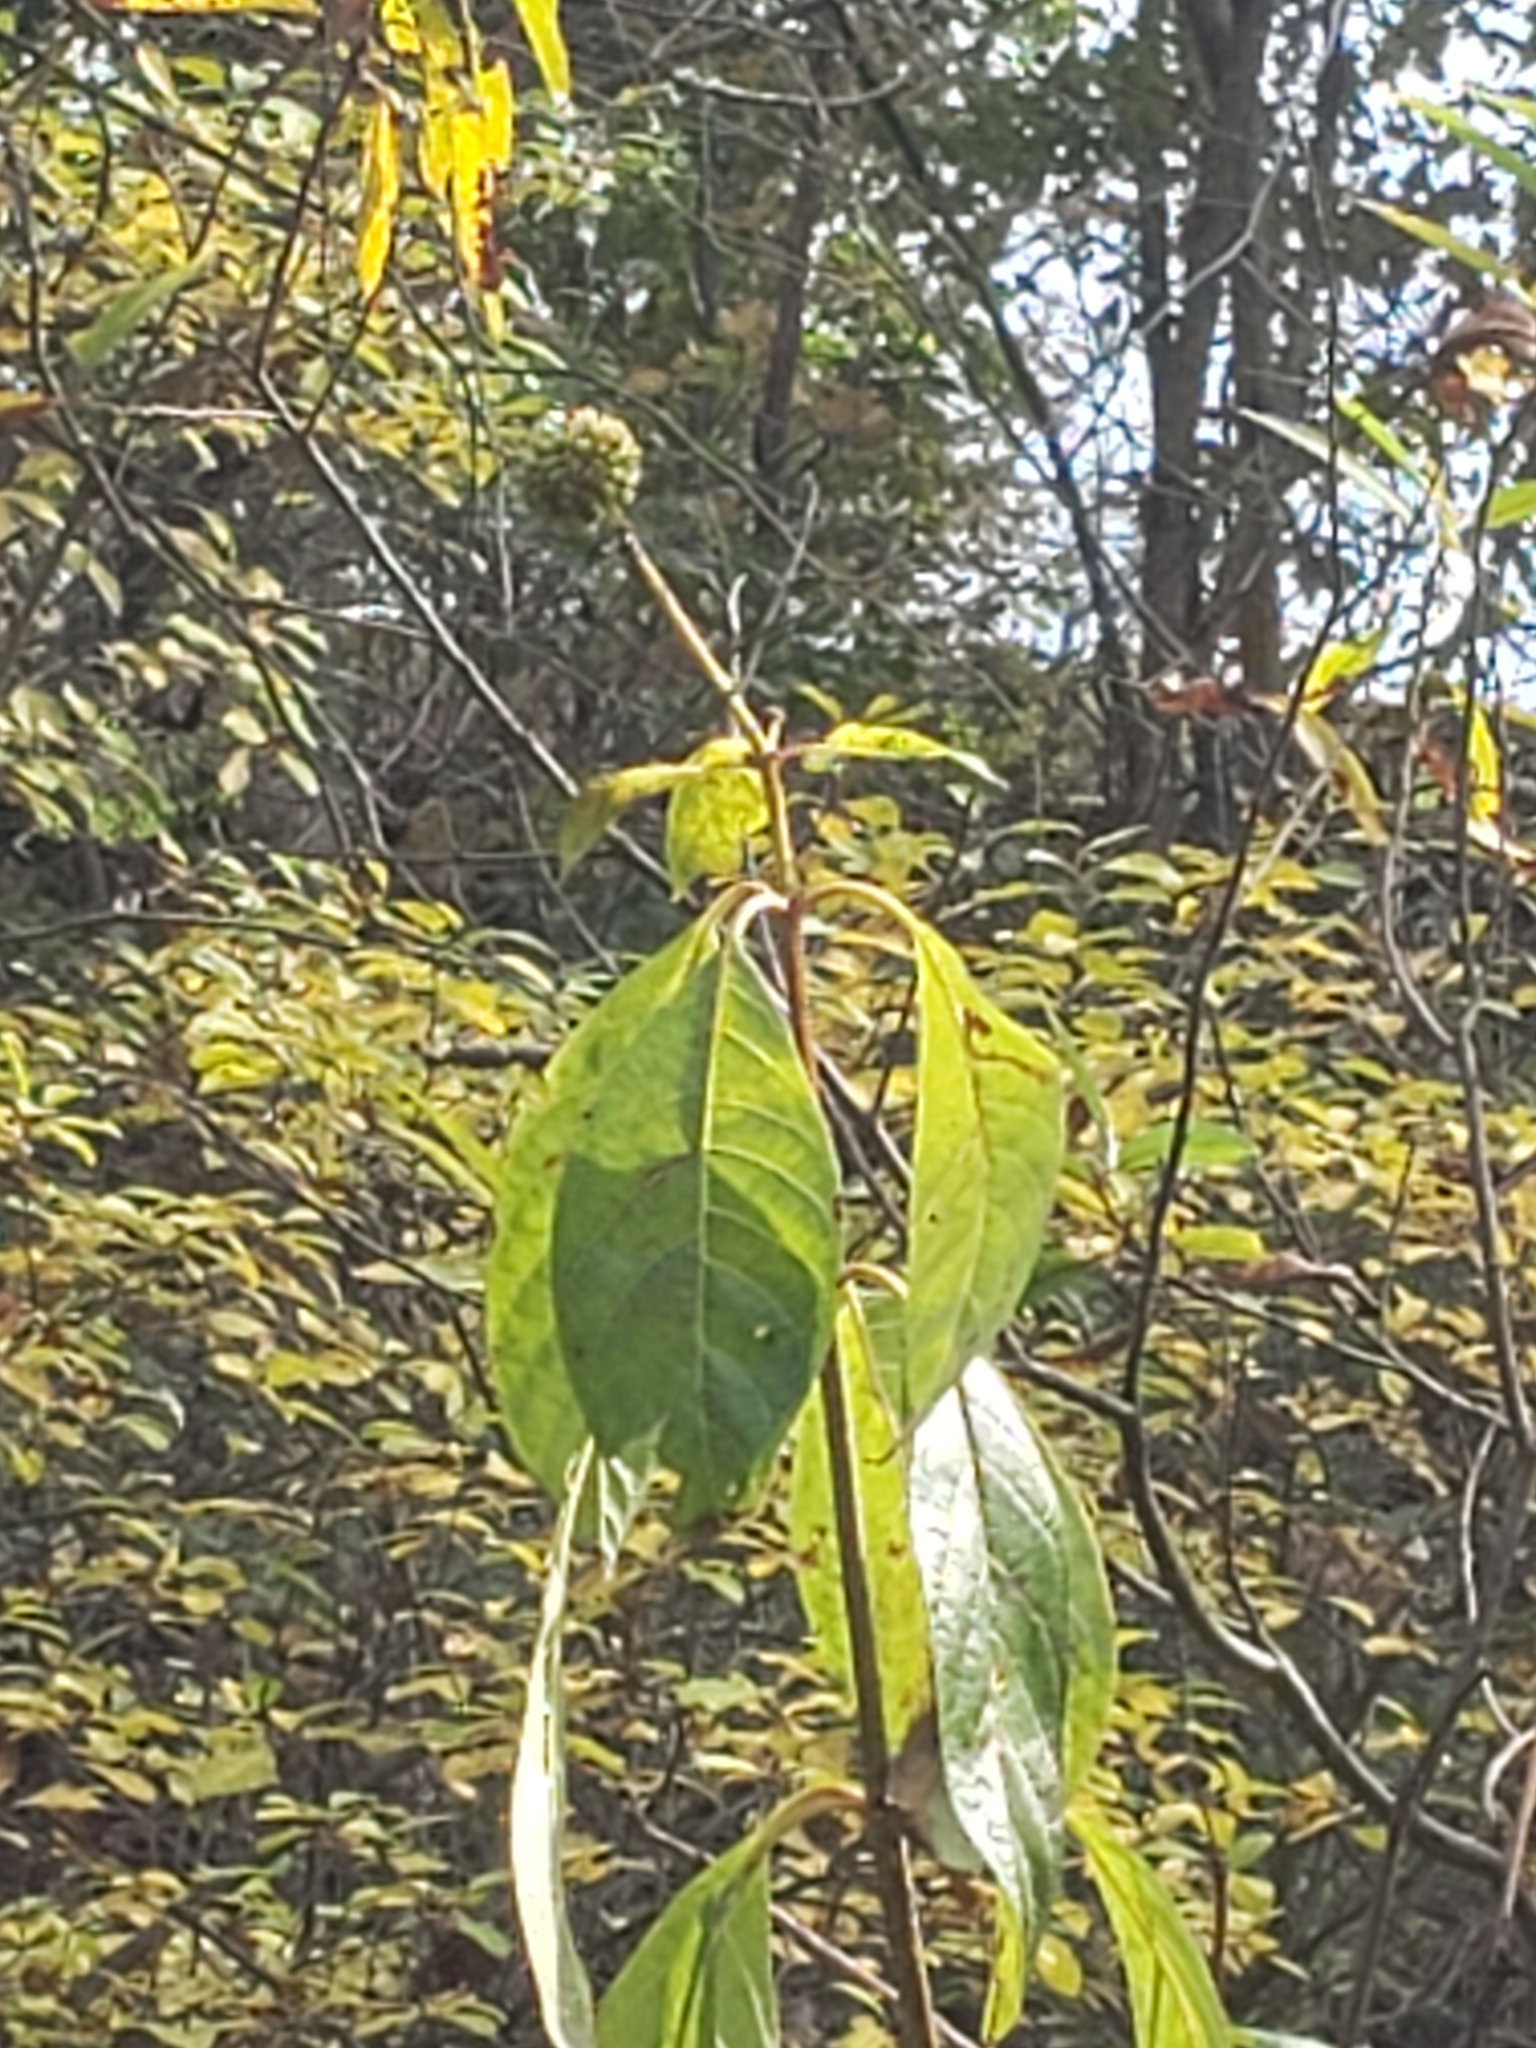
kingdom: Plantae
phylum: Tracheophyta
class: Magnoliopsida
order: Gentianales
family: Rubiaceae
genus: Cephalanthus
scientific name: Cephalanthus occidentalis
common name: Button-willow
